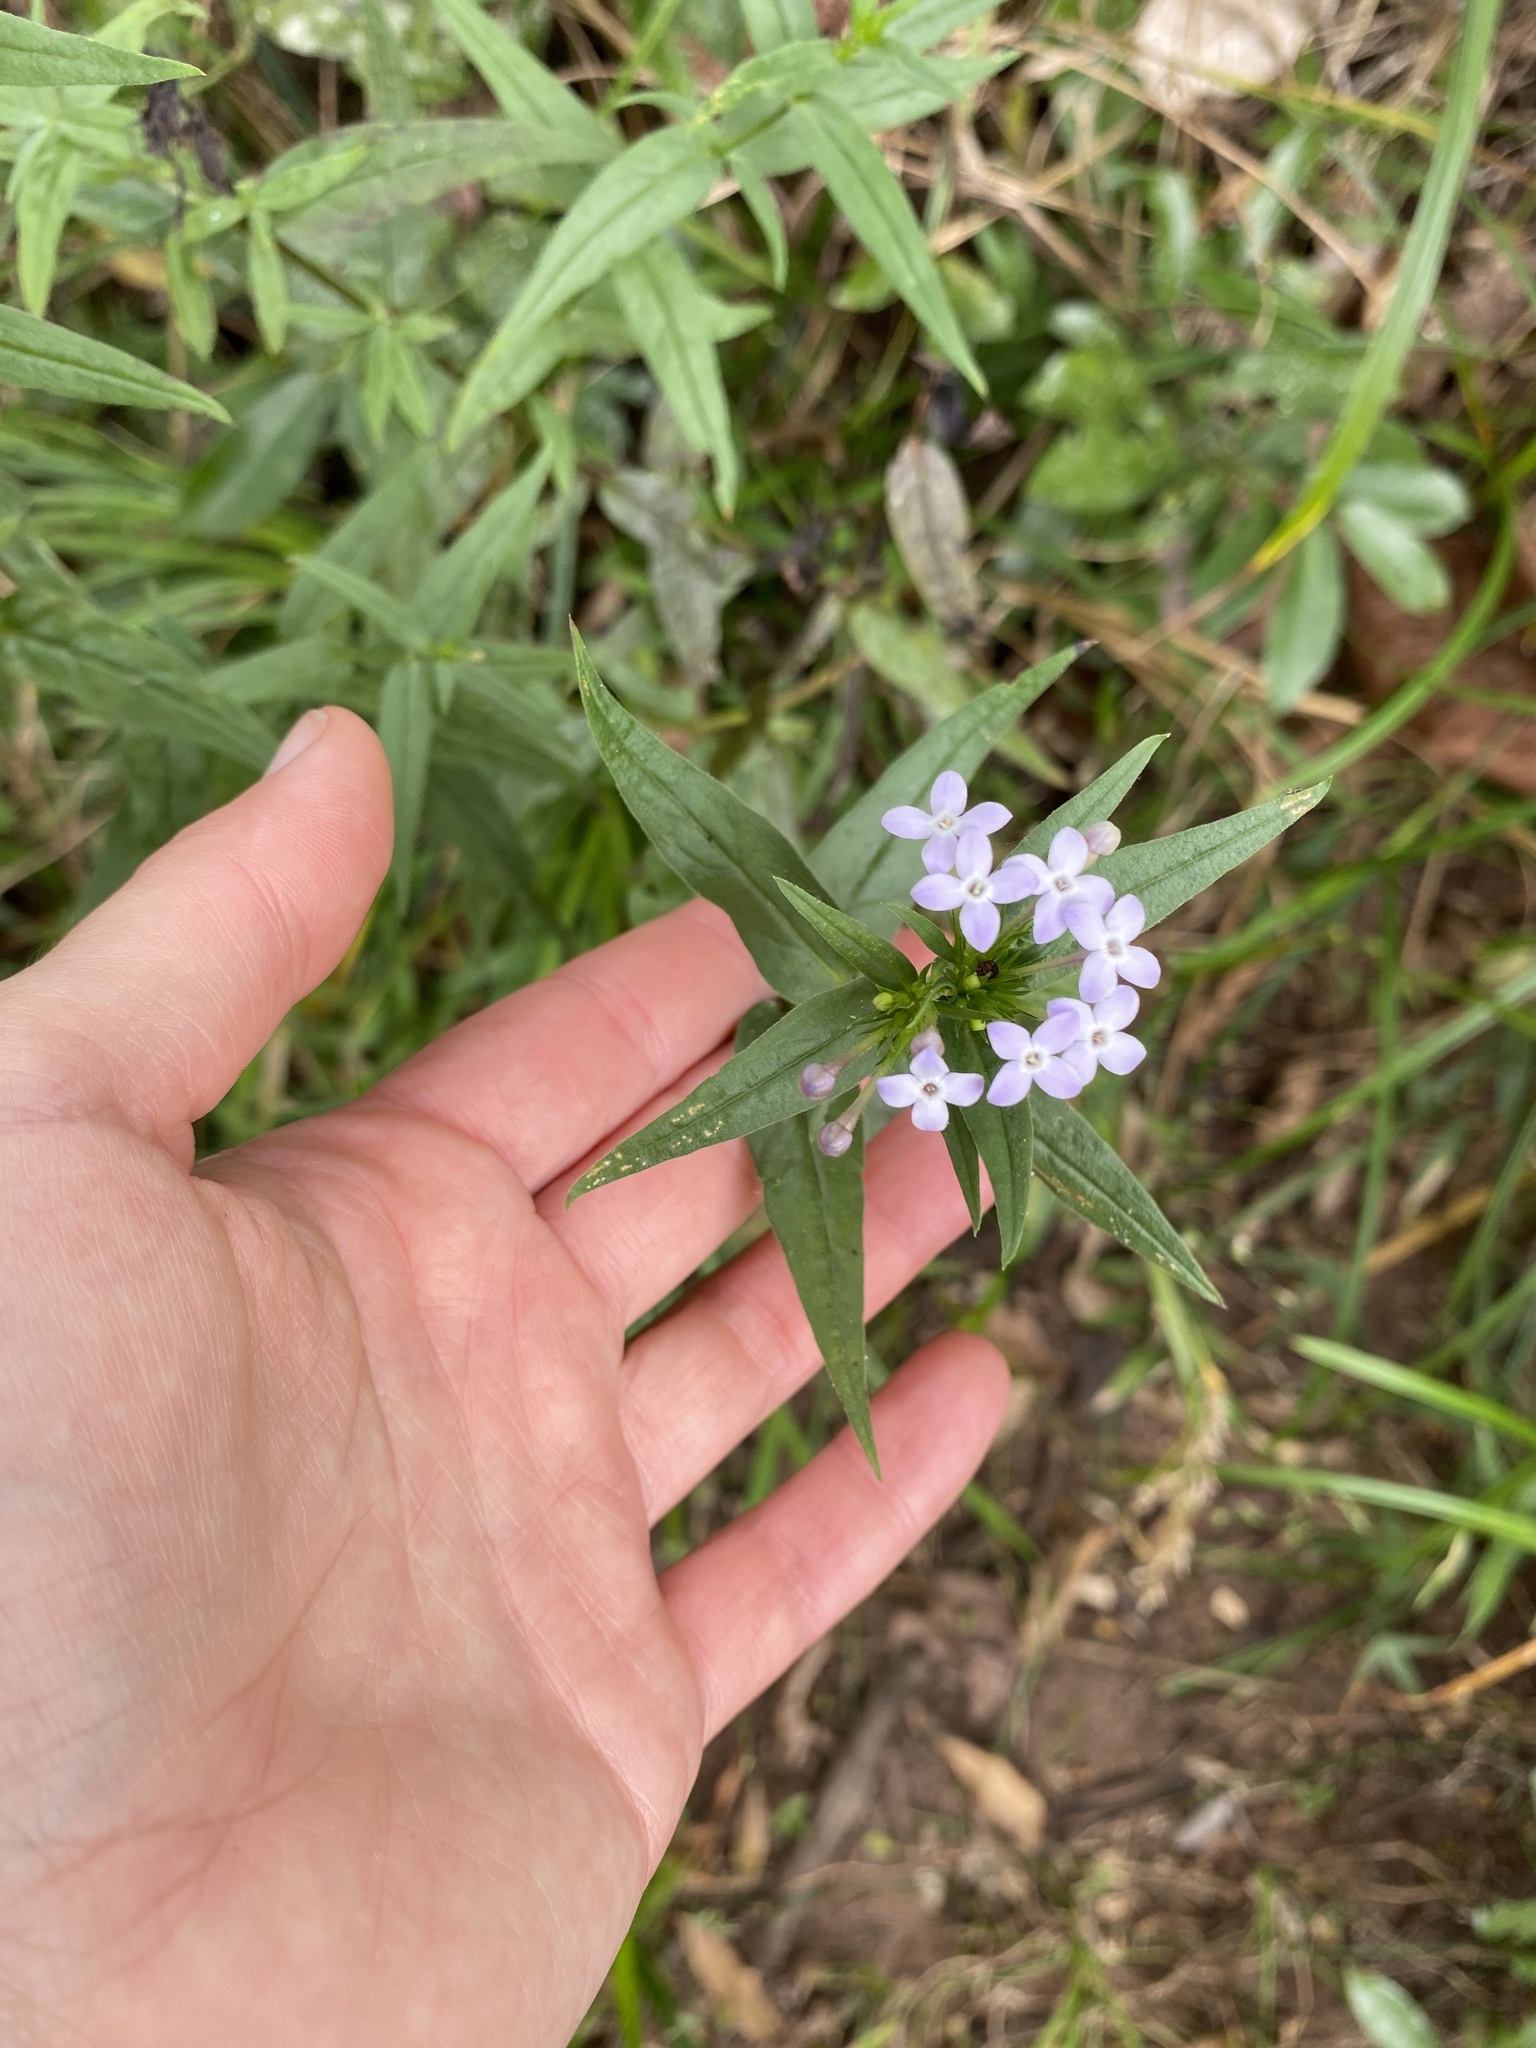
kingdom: Plantae
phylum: Tracheophyta
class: Magnoliopsida
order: Gentianales
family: Rubiaceae
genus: Conostomium
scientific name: Conostomium natalense
